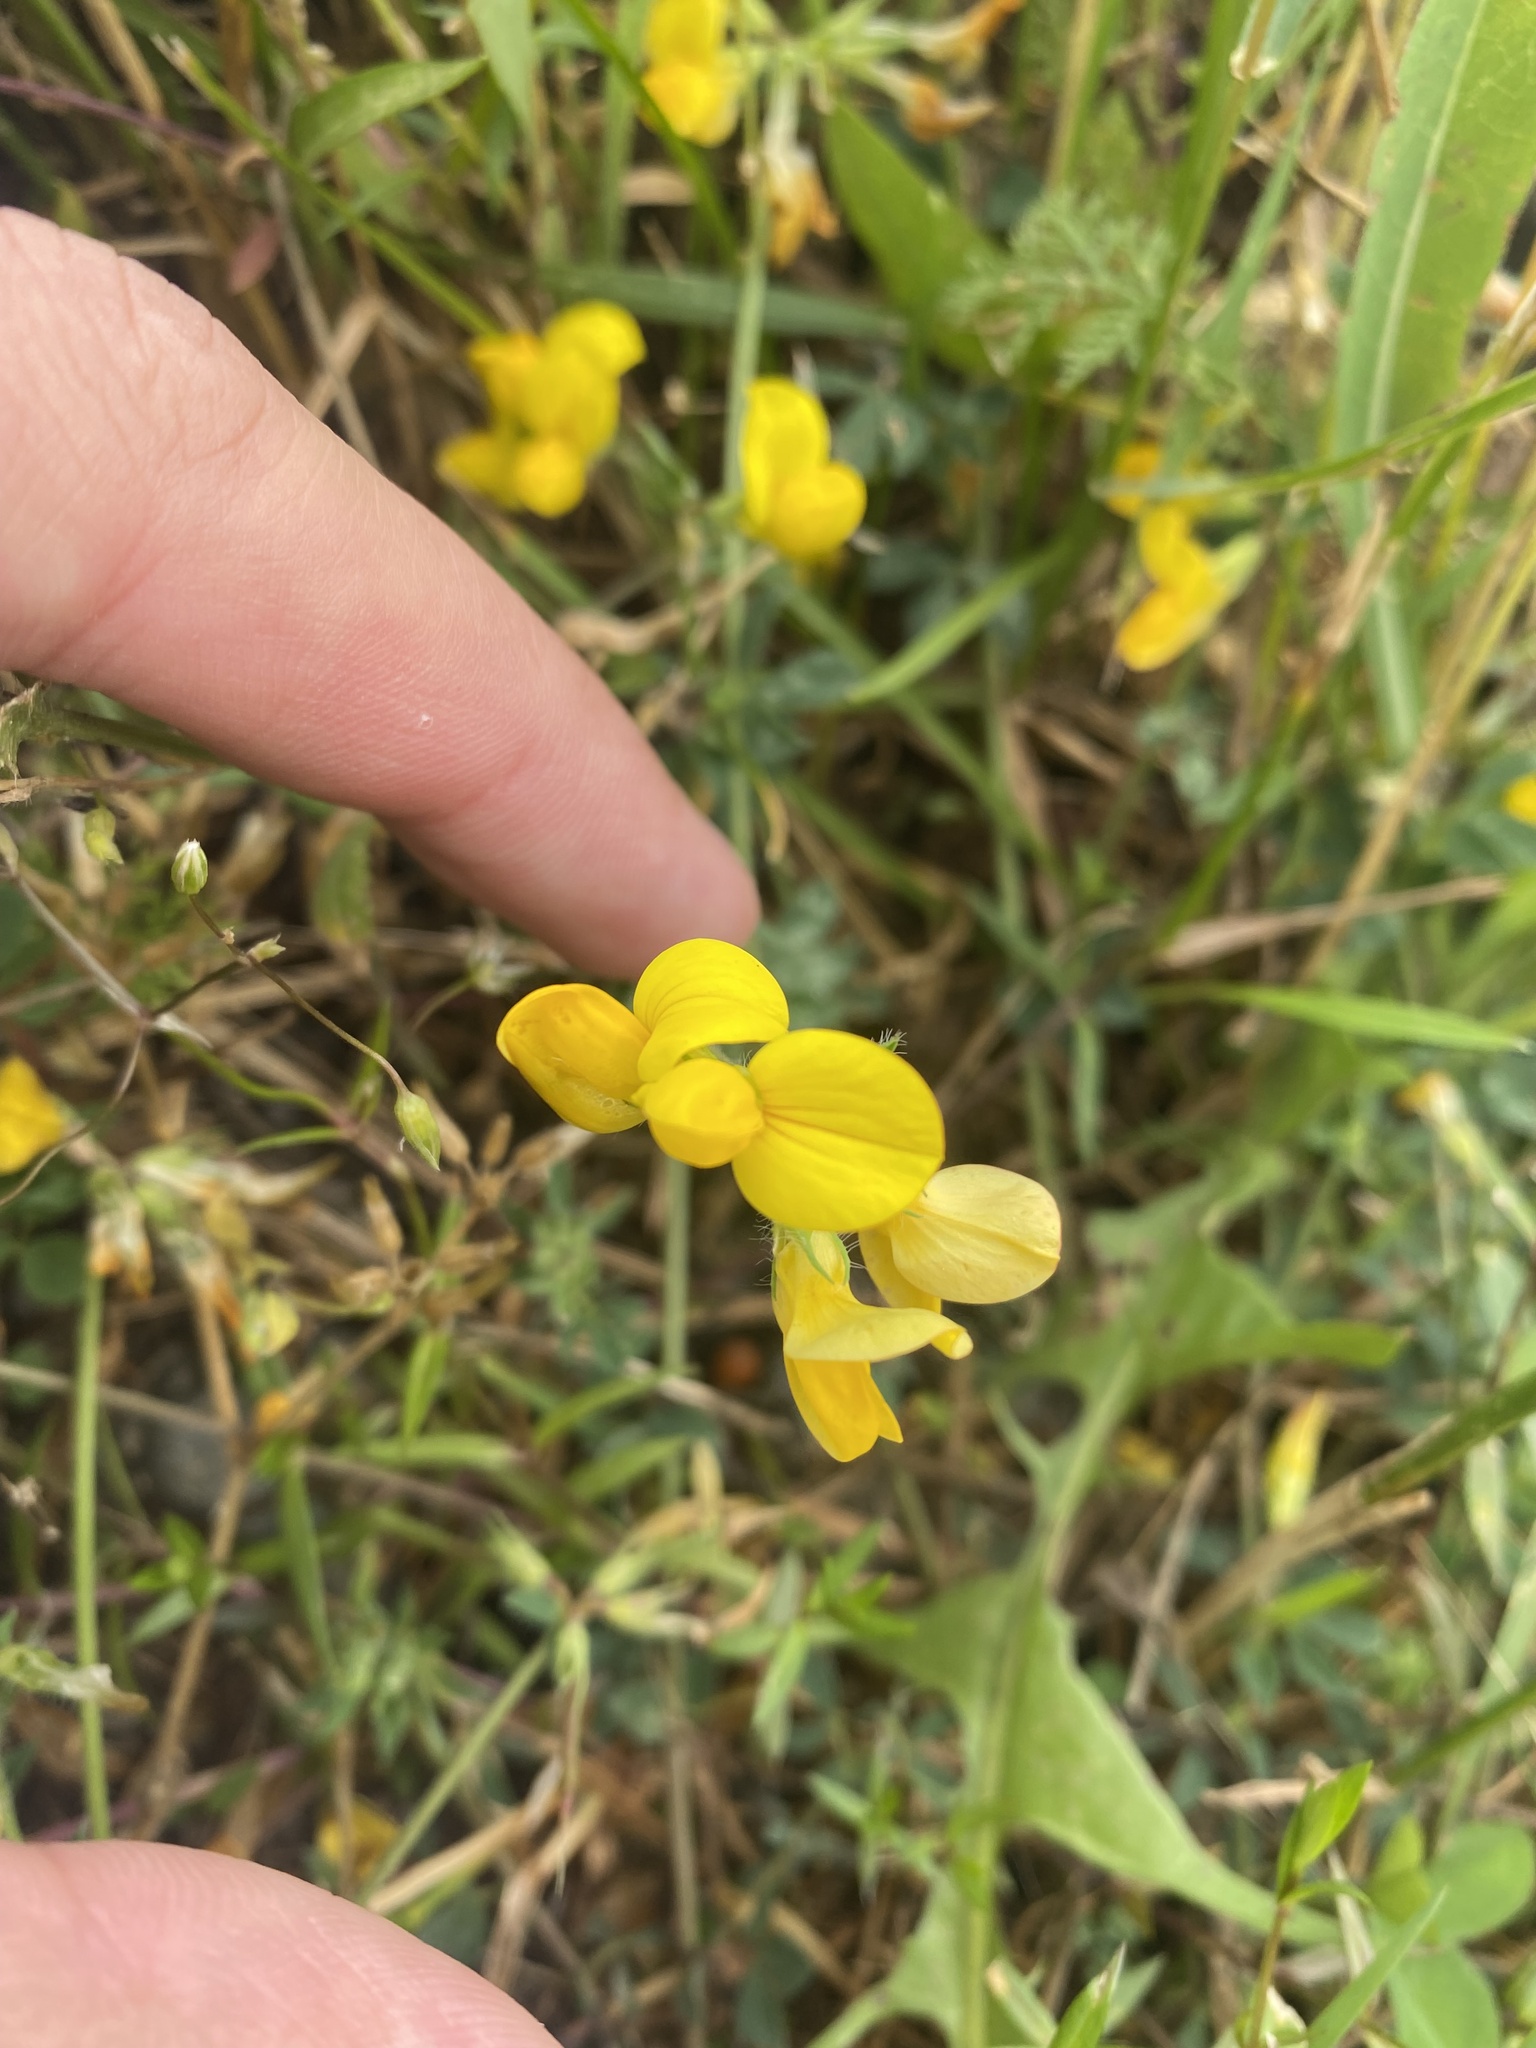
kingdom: Plantae
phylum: Tracheophyta
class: Magnoliopsida
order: Fabales
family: Fabaceae
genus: Lotus
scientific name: Lotus corniculatus
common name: Common bird's-foot-trefoil
